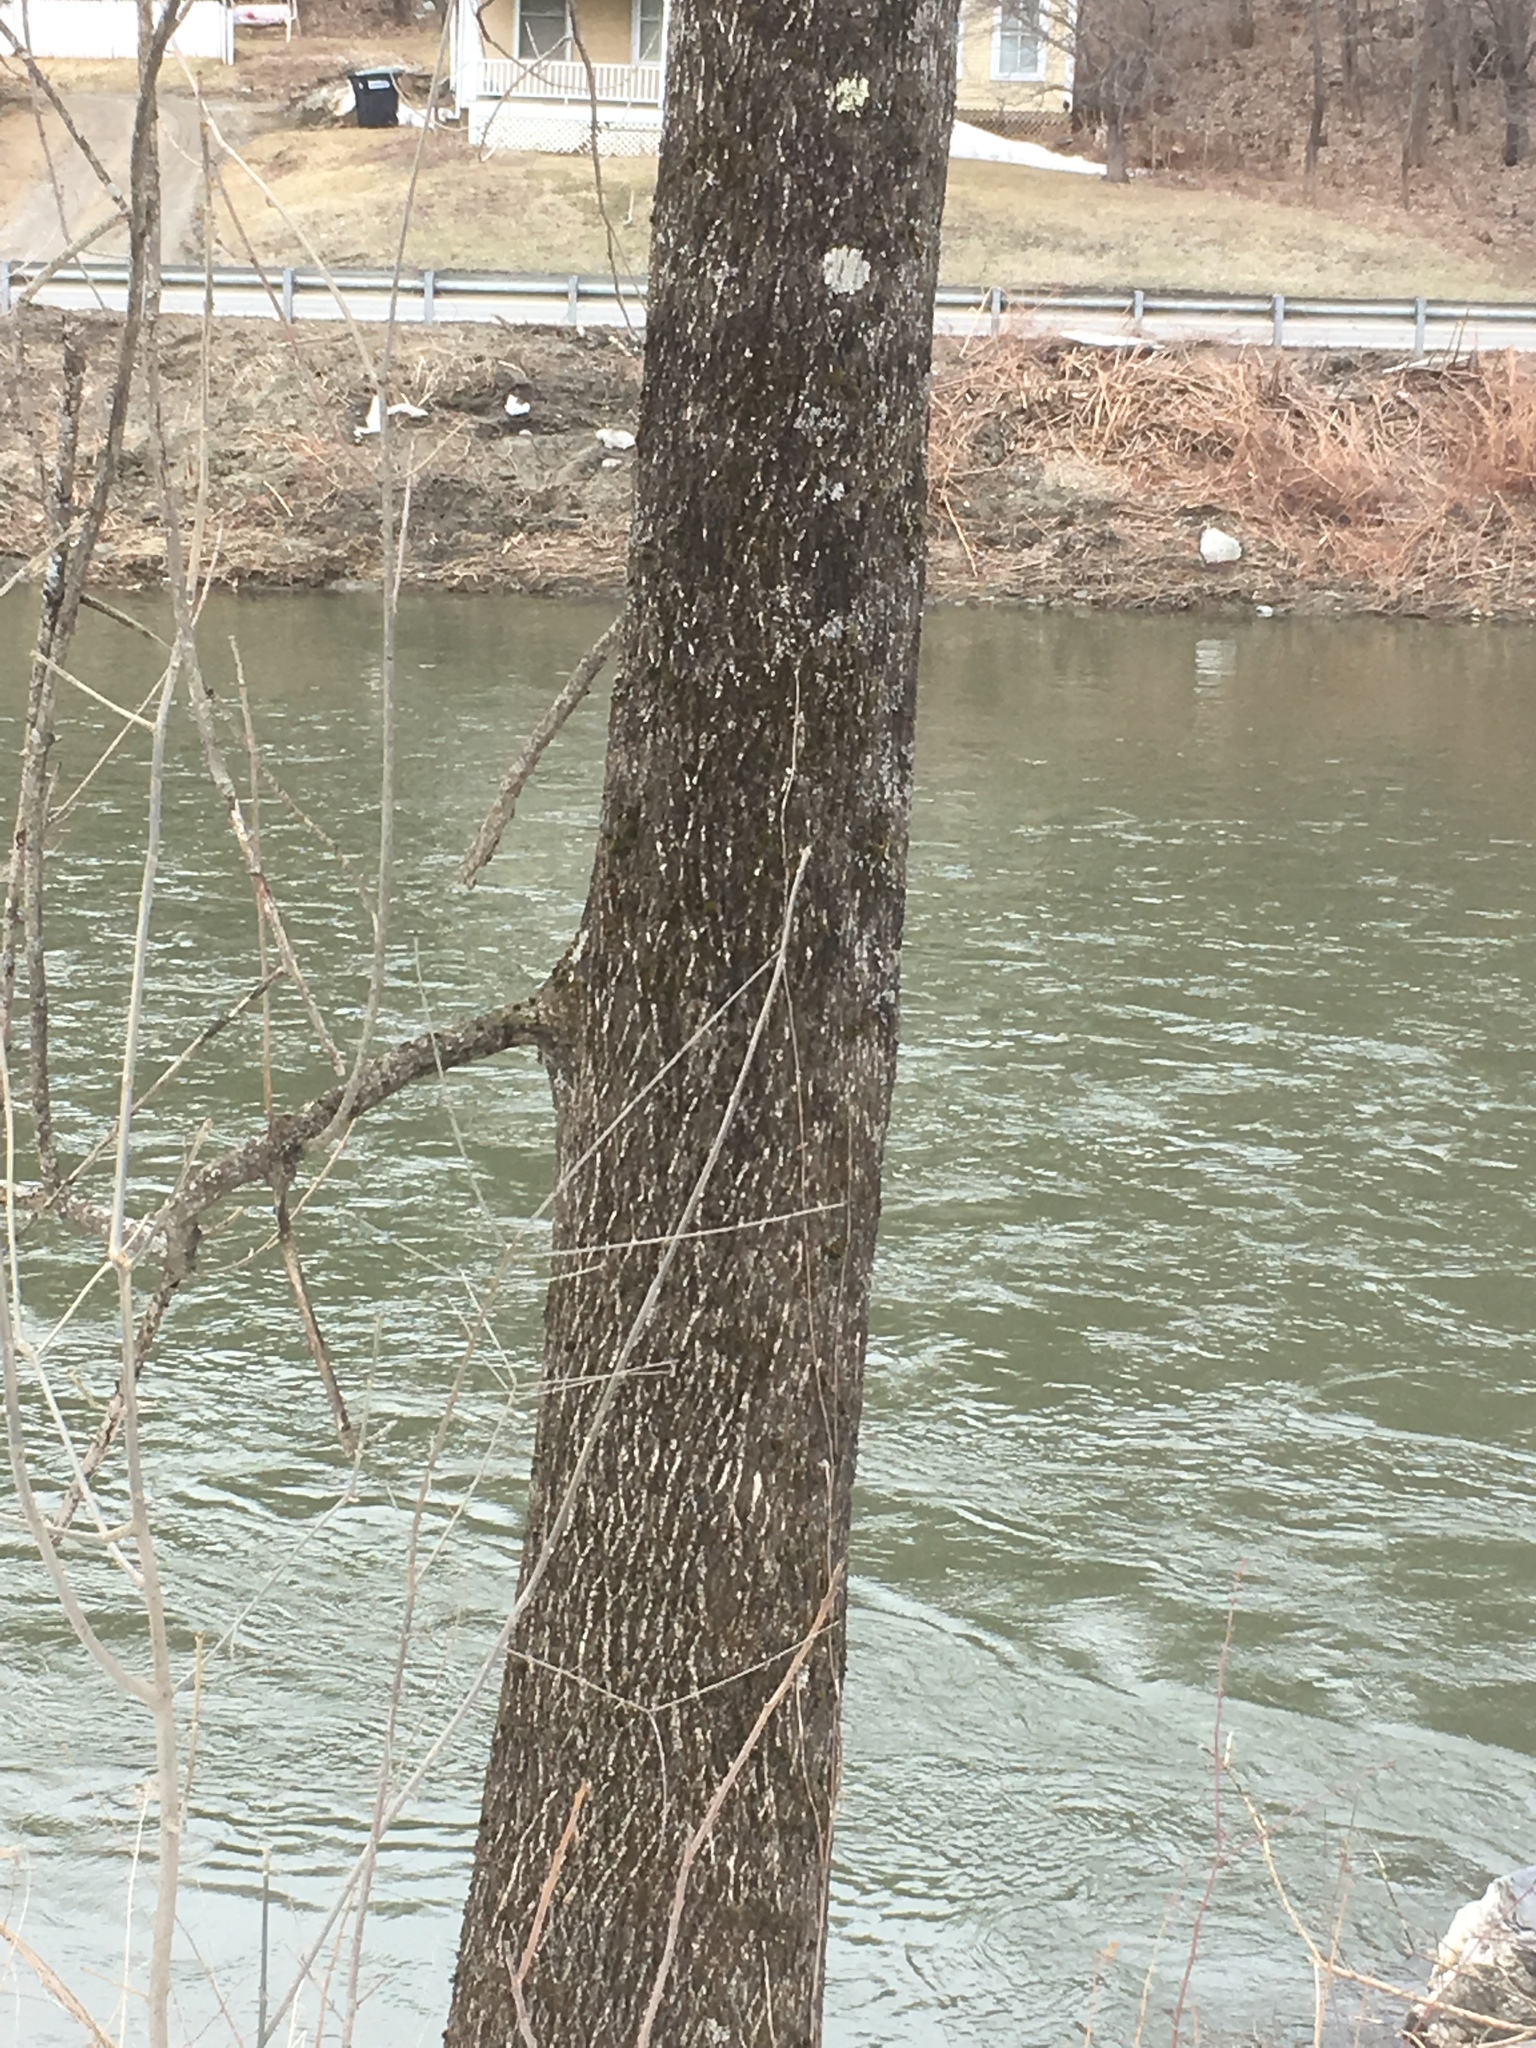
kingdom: Plantae
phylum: Tracheophyta
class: Magnoliopsida
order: Lamiales
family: Oleaceae
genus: Fraxinus
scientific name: Fraxinus americana
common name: White ash
